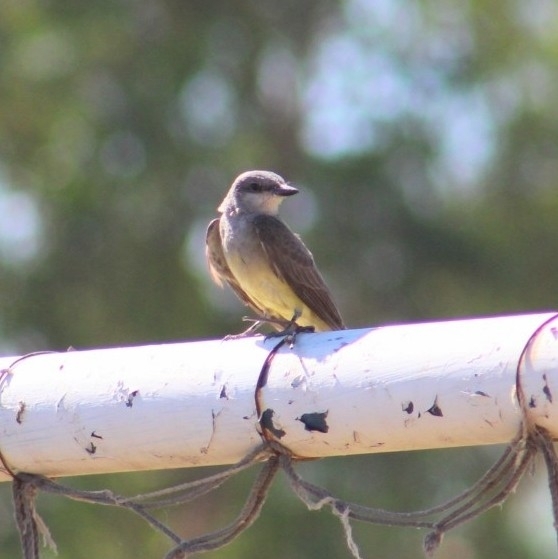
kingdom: Animalia
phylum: Chordata
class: Aves
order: Passeriformes
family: Tyrannidae
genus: Tyrannus
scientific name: Tyrannus verticalis
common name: Western kingbird
